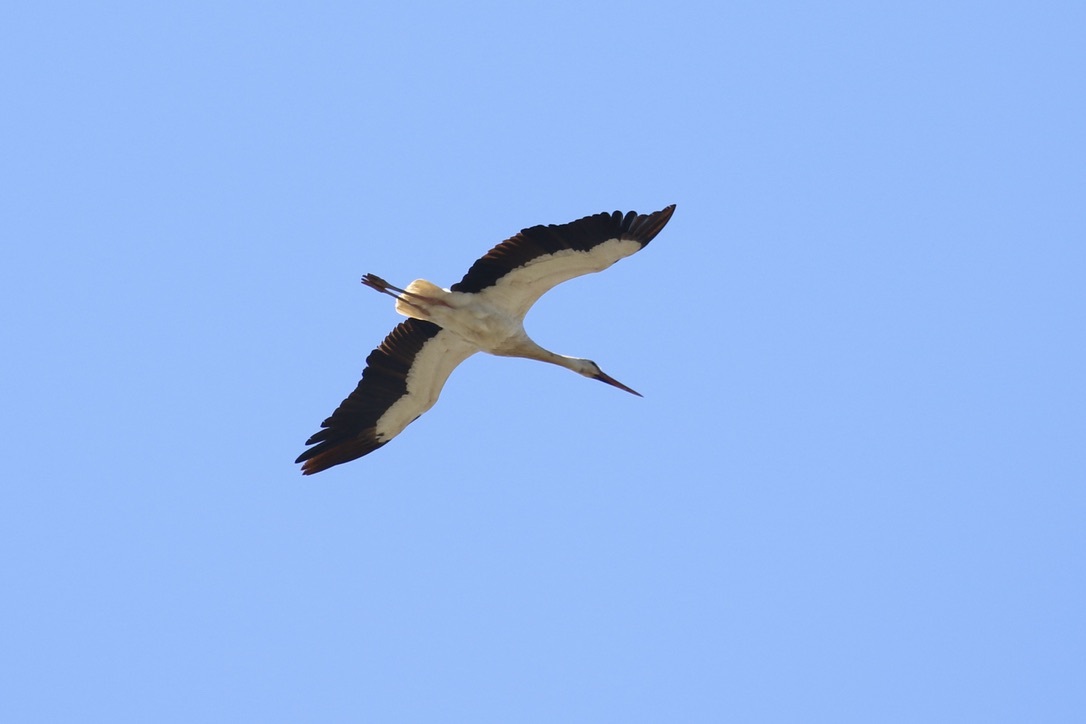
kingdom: Animalia
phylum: Chordata
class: Aves
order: Ciconiiformes
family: Ciconiidae
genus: Ciconia
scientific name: Ciconia ciconia
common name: White stork
